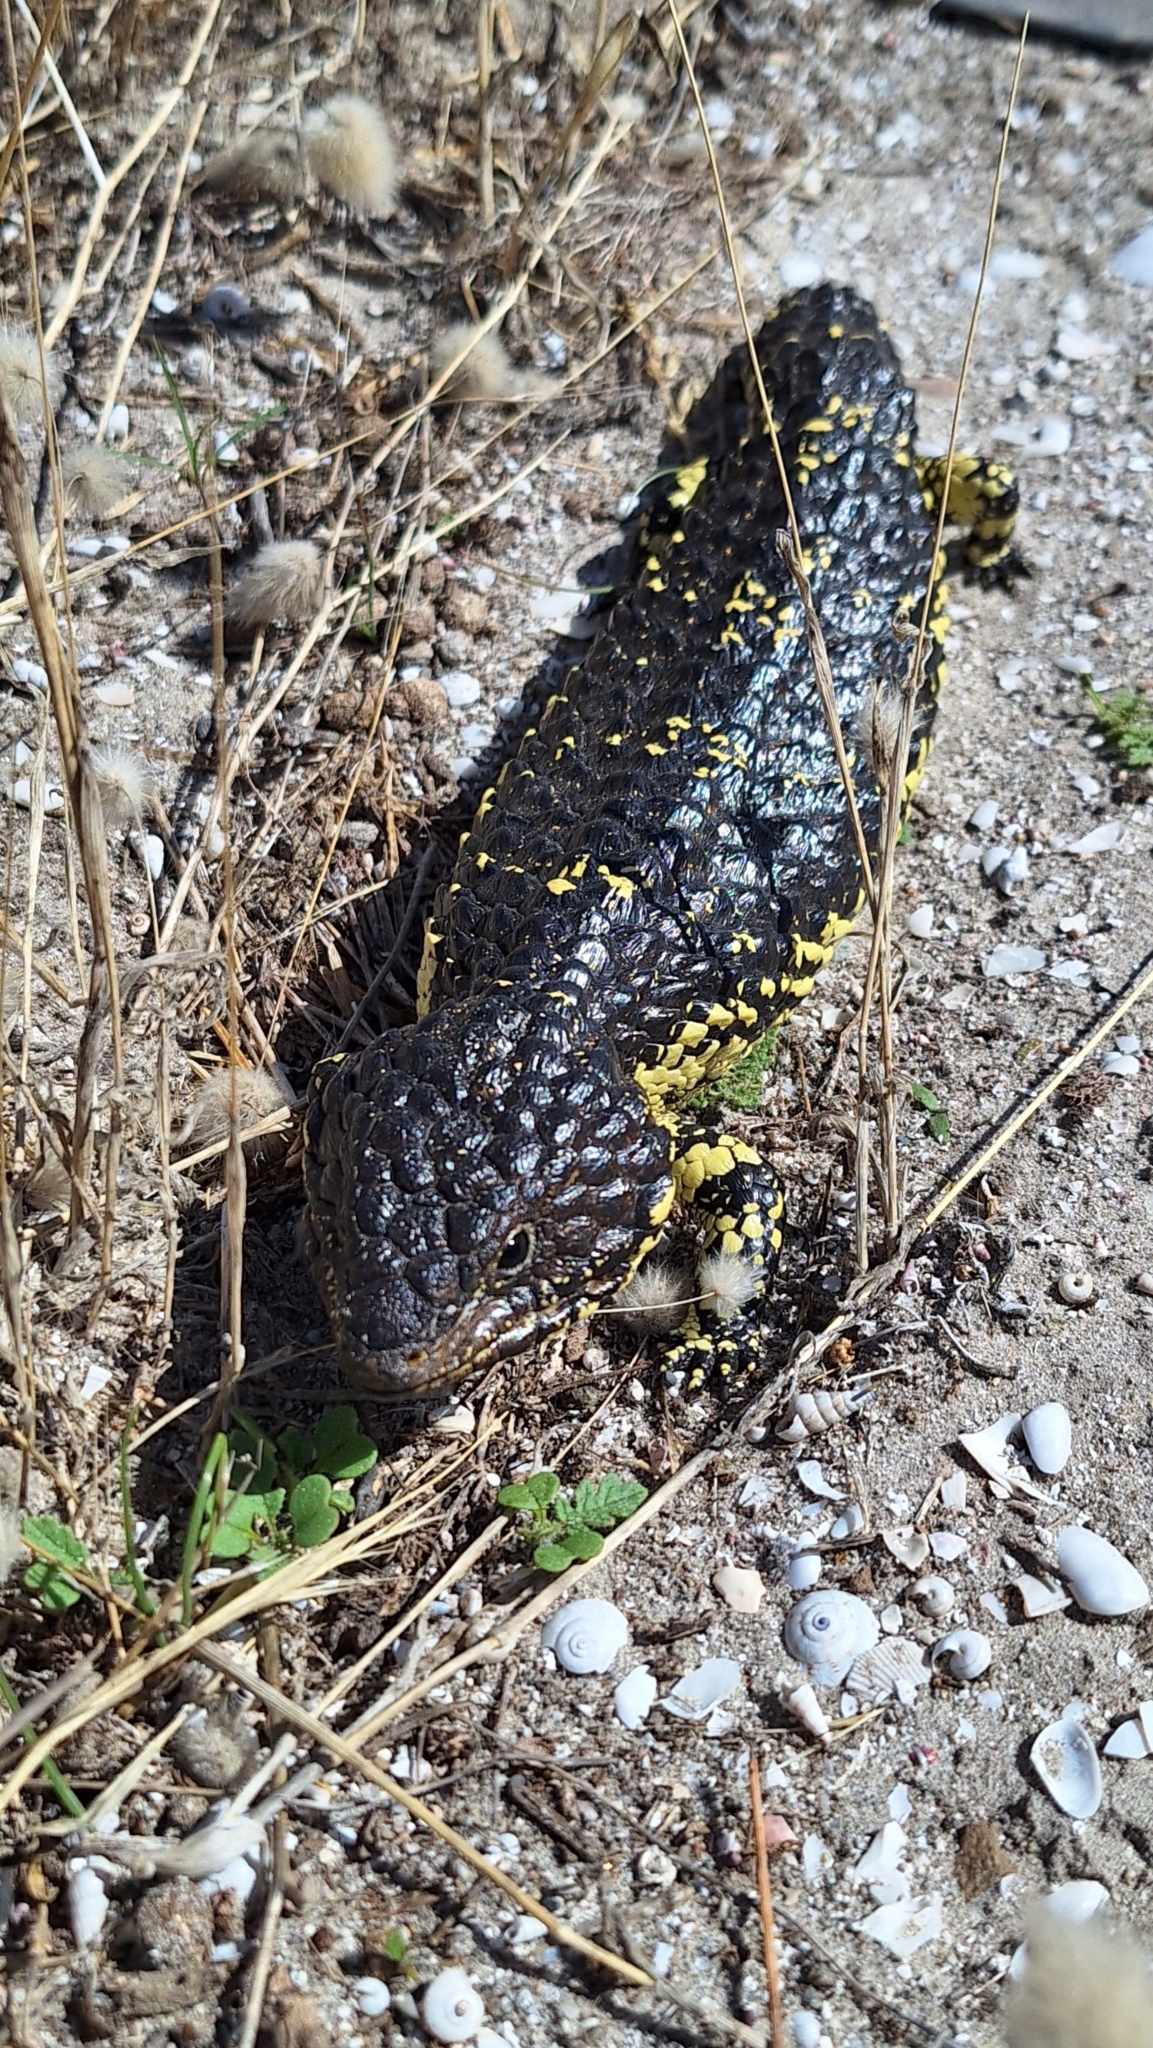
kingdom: Animalia
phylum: Chordata
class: Squamata
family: Scincidae
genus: Tiliqua
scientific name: Tiliqua rugosa
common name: Pinecone lizard
